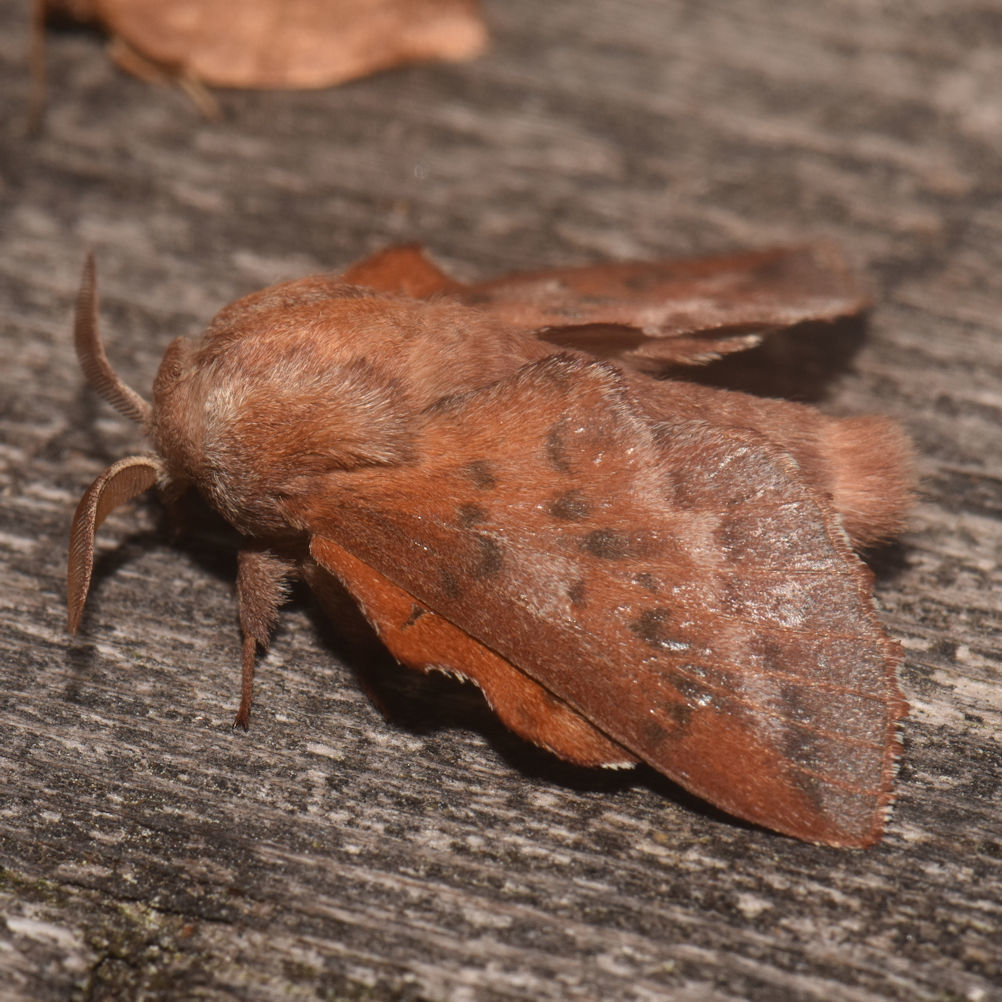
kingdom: Animalia
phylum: Arthropoda
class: Insecta
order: Lepidoptera
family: Lasiocampidae
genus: Phyllodesma
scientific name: Phyllodesma americana
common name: American lappet moth
